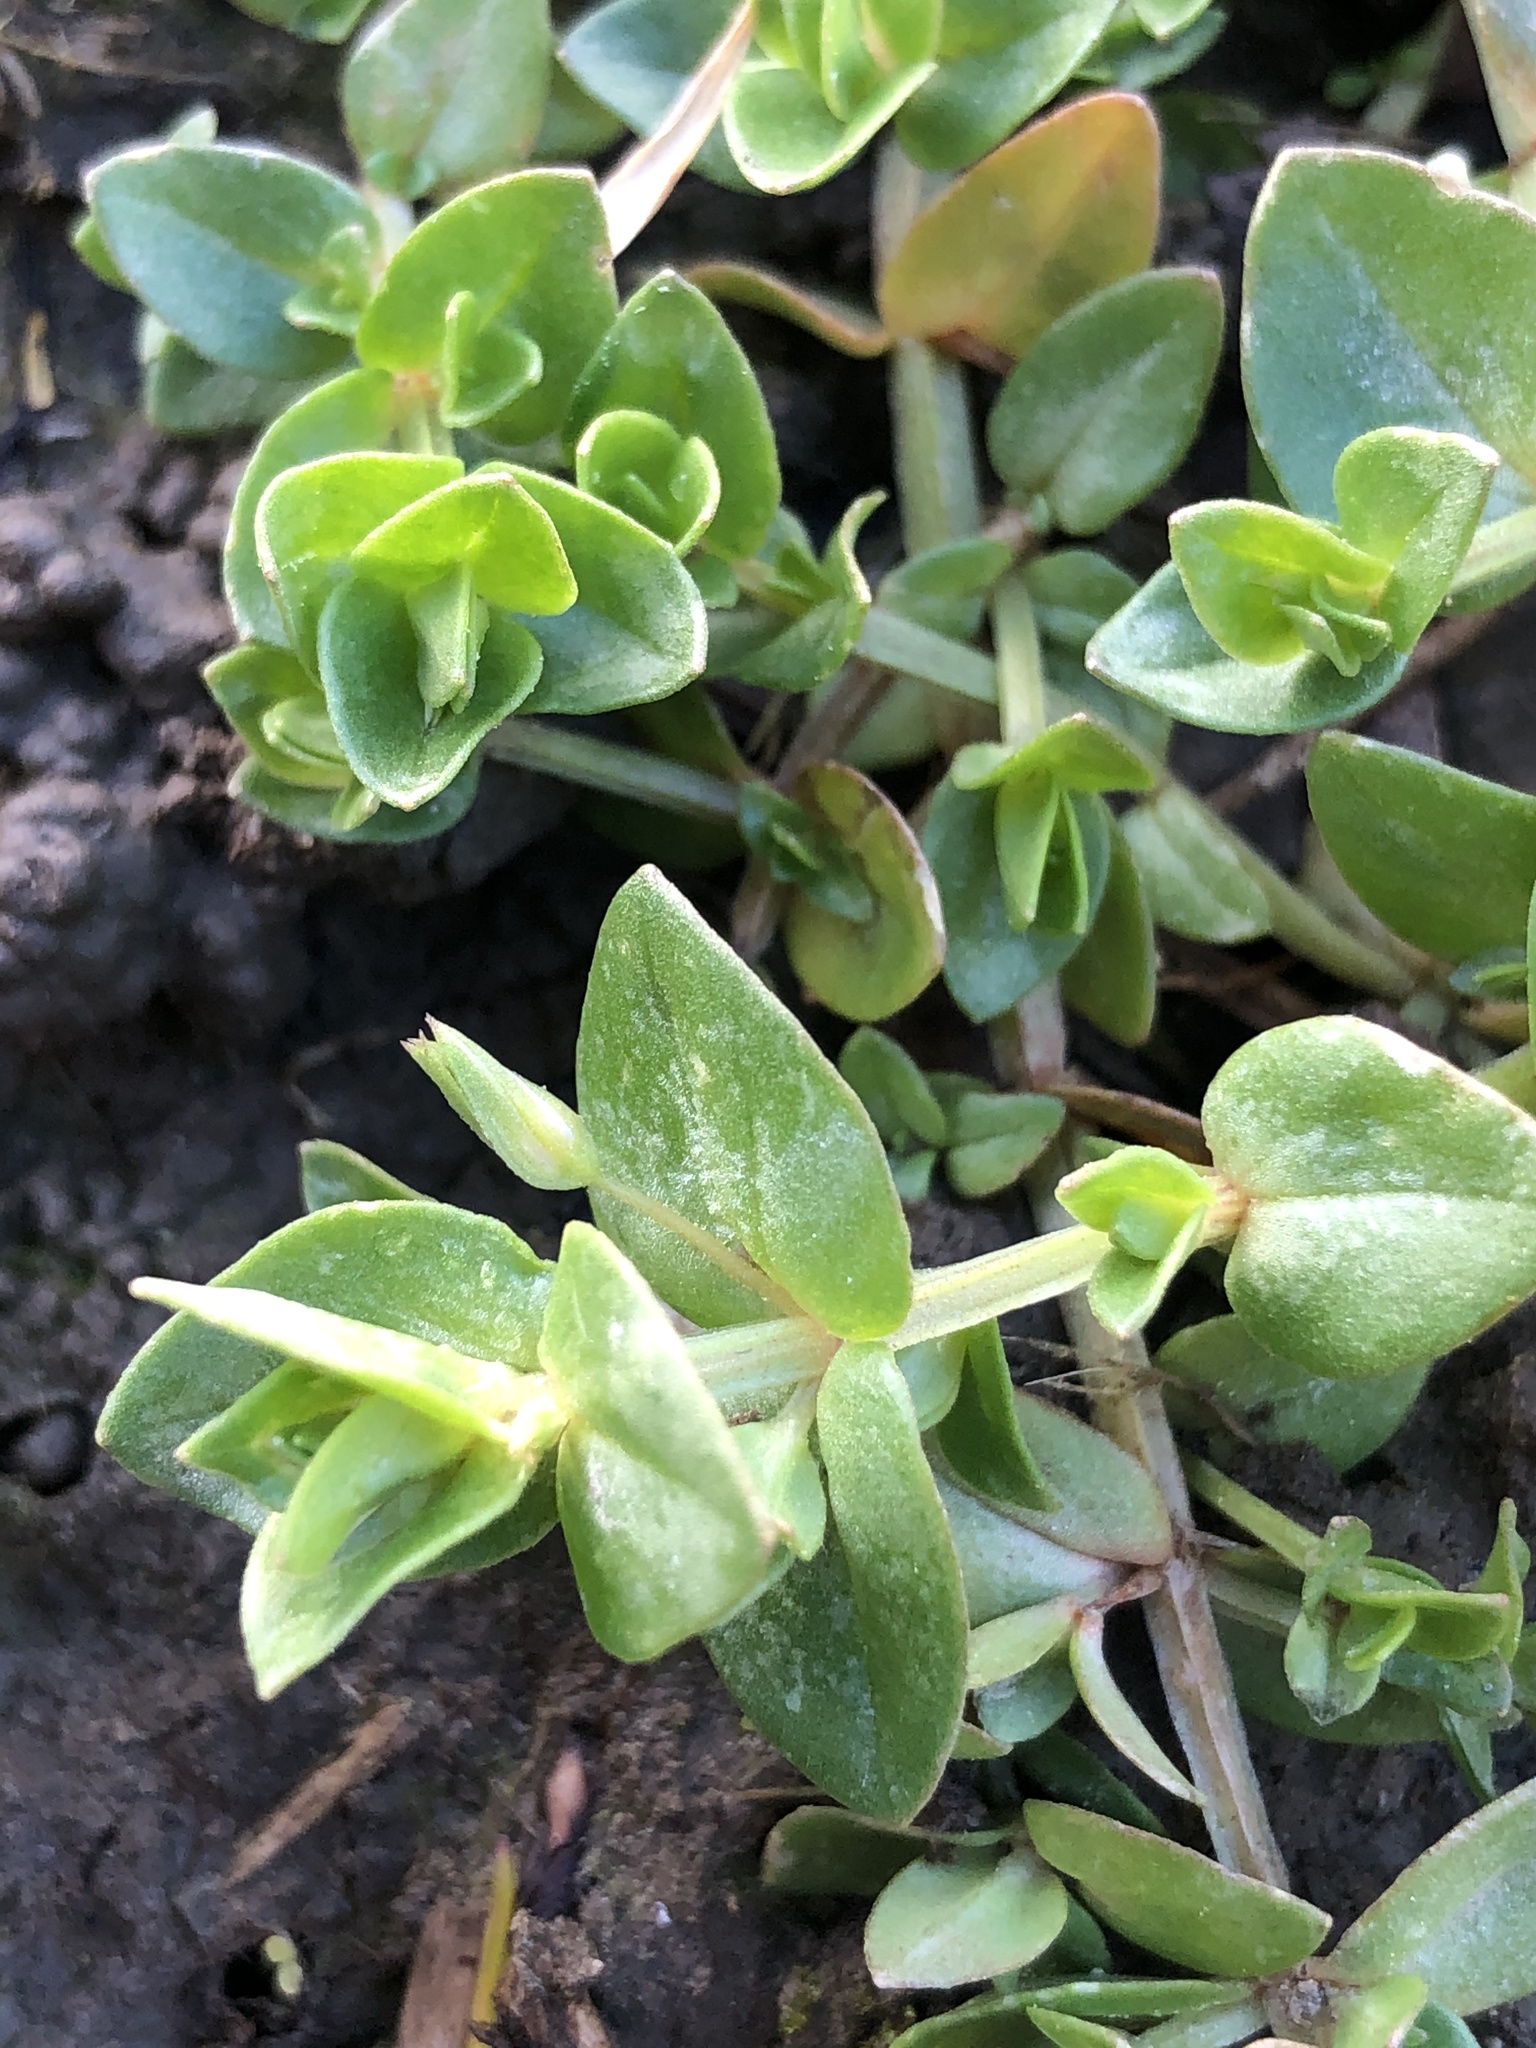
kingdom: Plantae
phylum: Tracheophyta
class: Magnoliopsida
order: Ericales
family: Primulaceae
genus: Lysimachia
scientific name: Lysimachia arvensis
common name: Scarlet pimpernel
